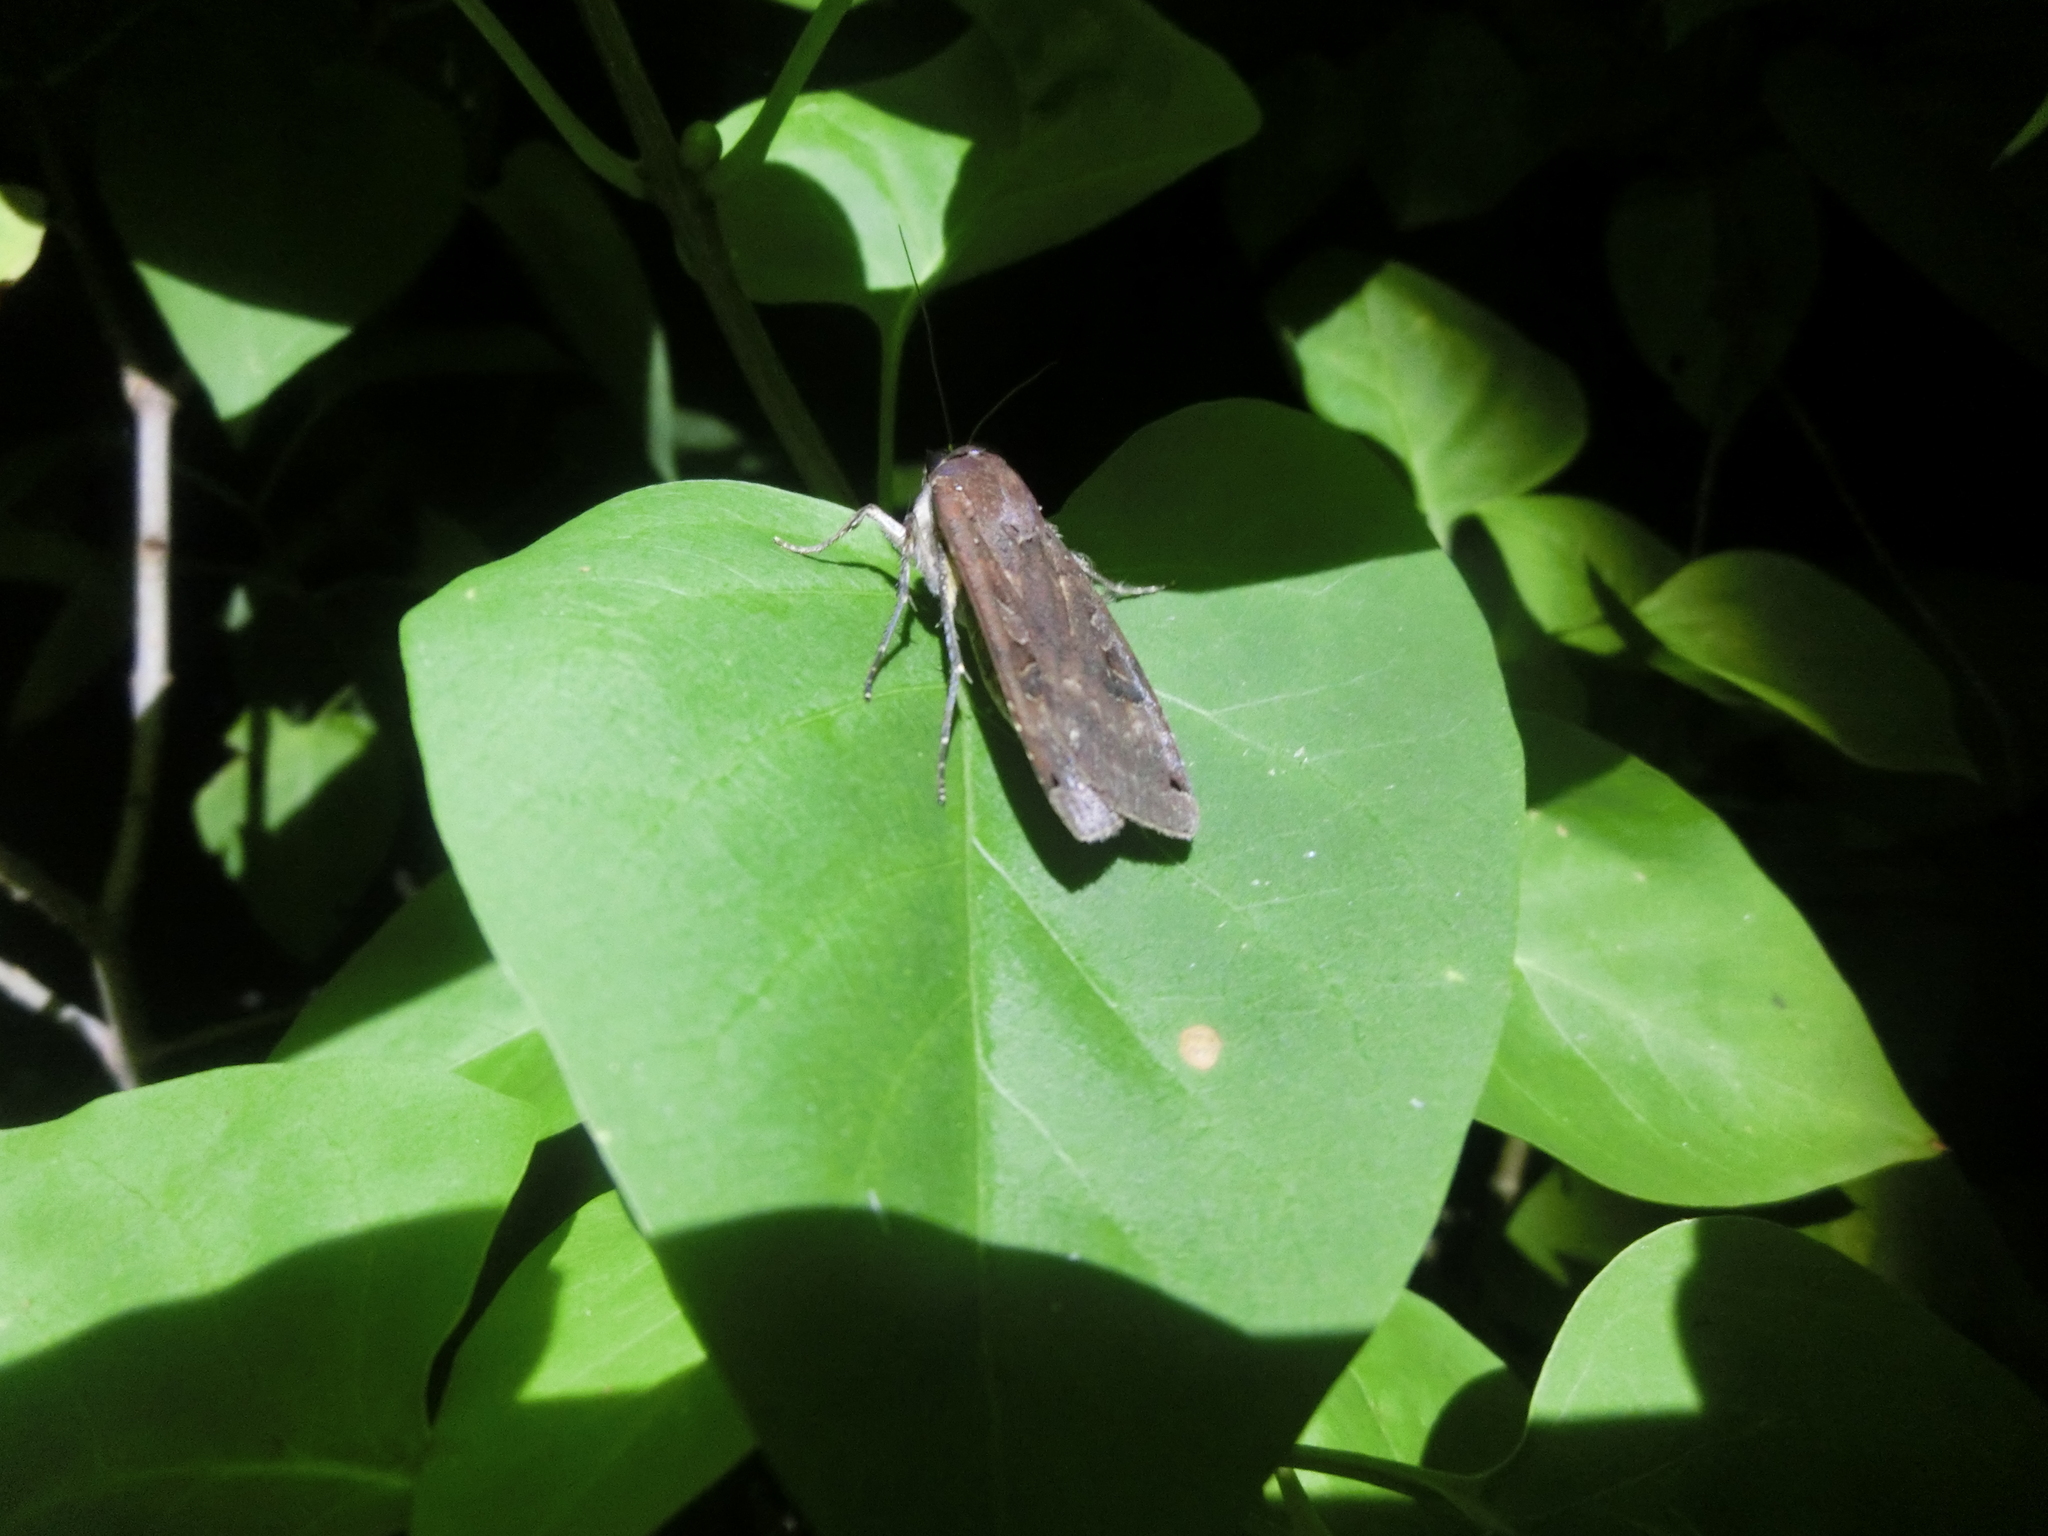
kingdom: Animalia
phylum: Arthropoda
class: Insecta
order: Lepidoptera
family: Noctuidae
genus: Noctua
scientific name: Noctua pronuba
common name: Large yellow underwing
